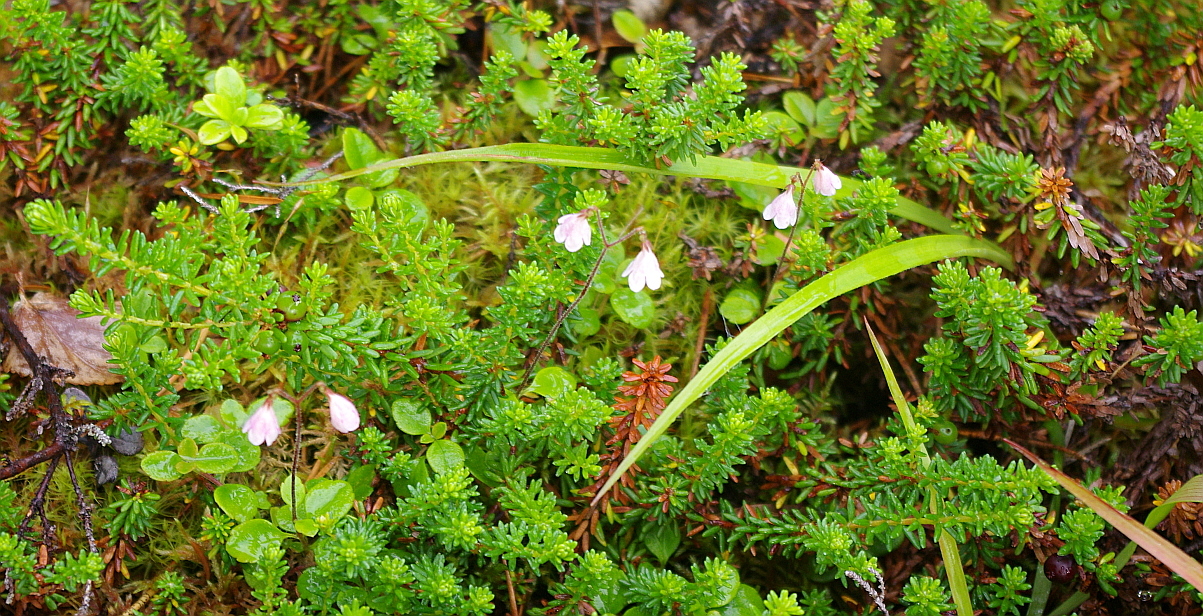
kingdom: Plantae
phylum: Tracheophyta
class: Magnoliopsida
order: Dipsacales
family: Caprifoliaceae
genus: Linnaea
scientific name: Linnaea borealis
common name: Twinflower
